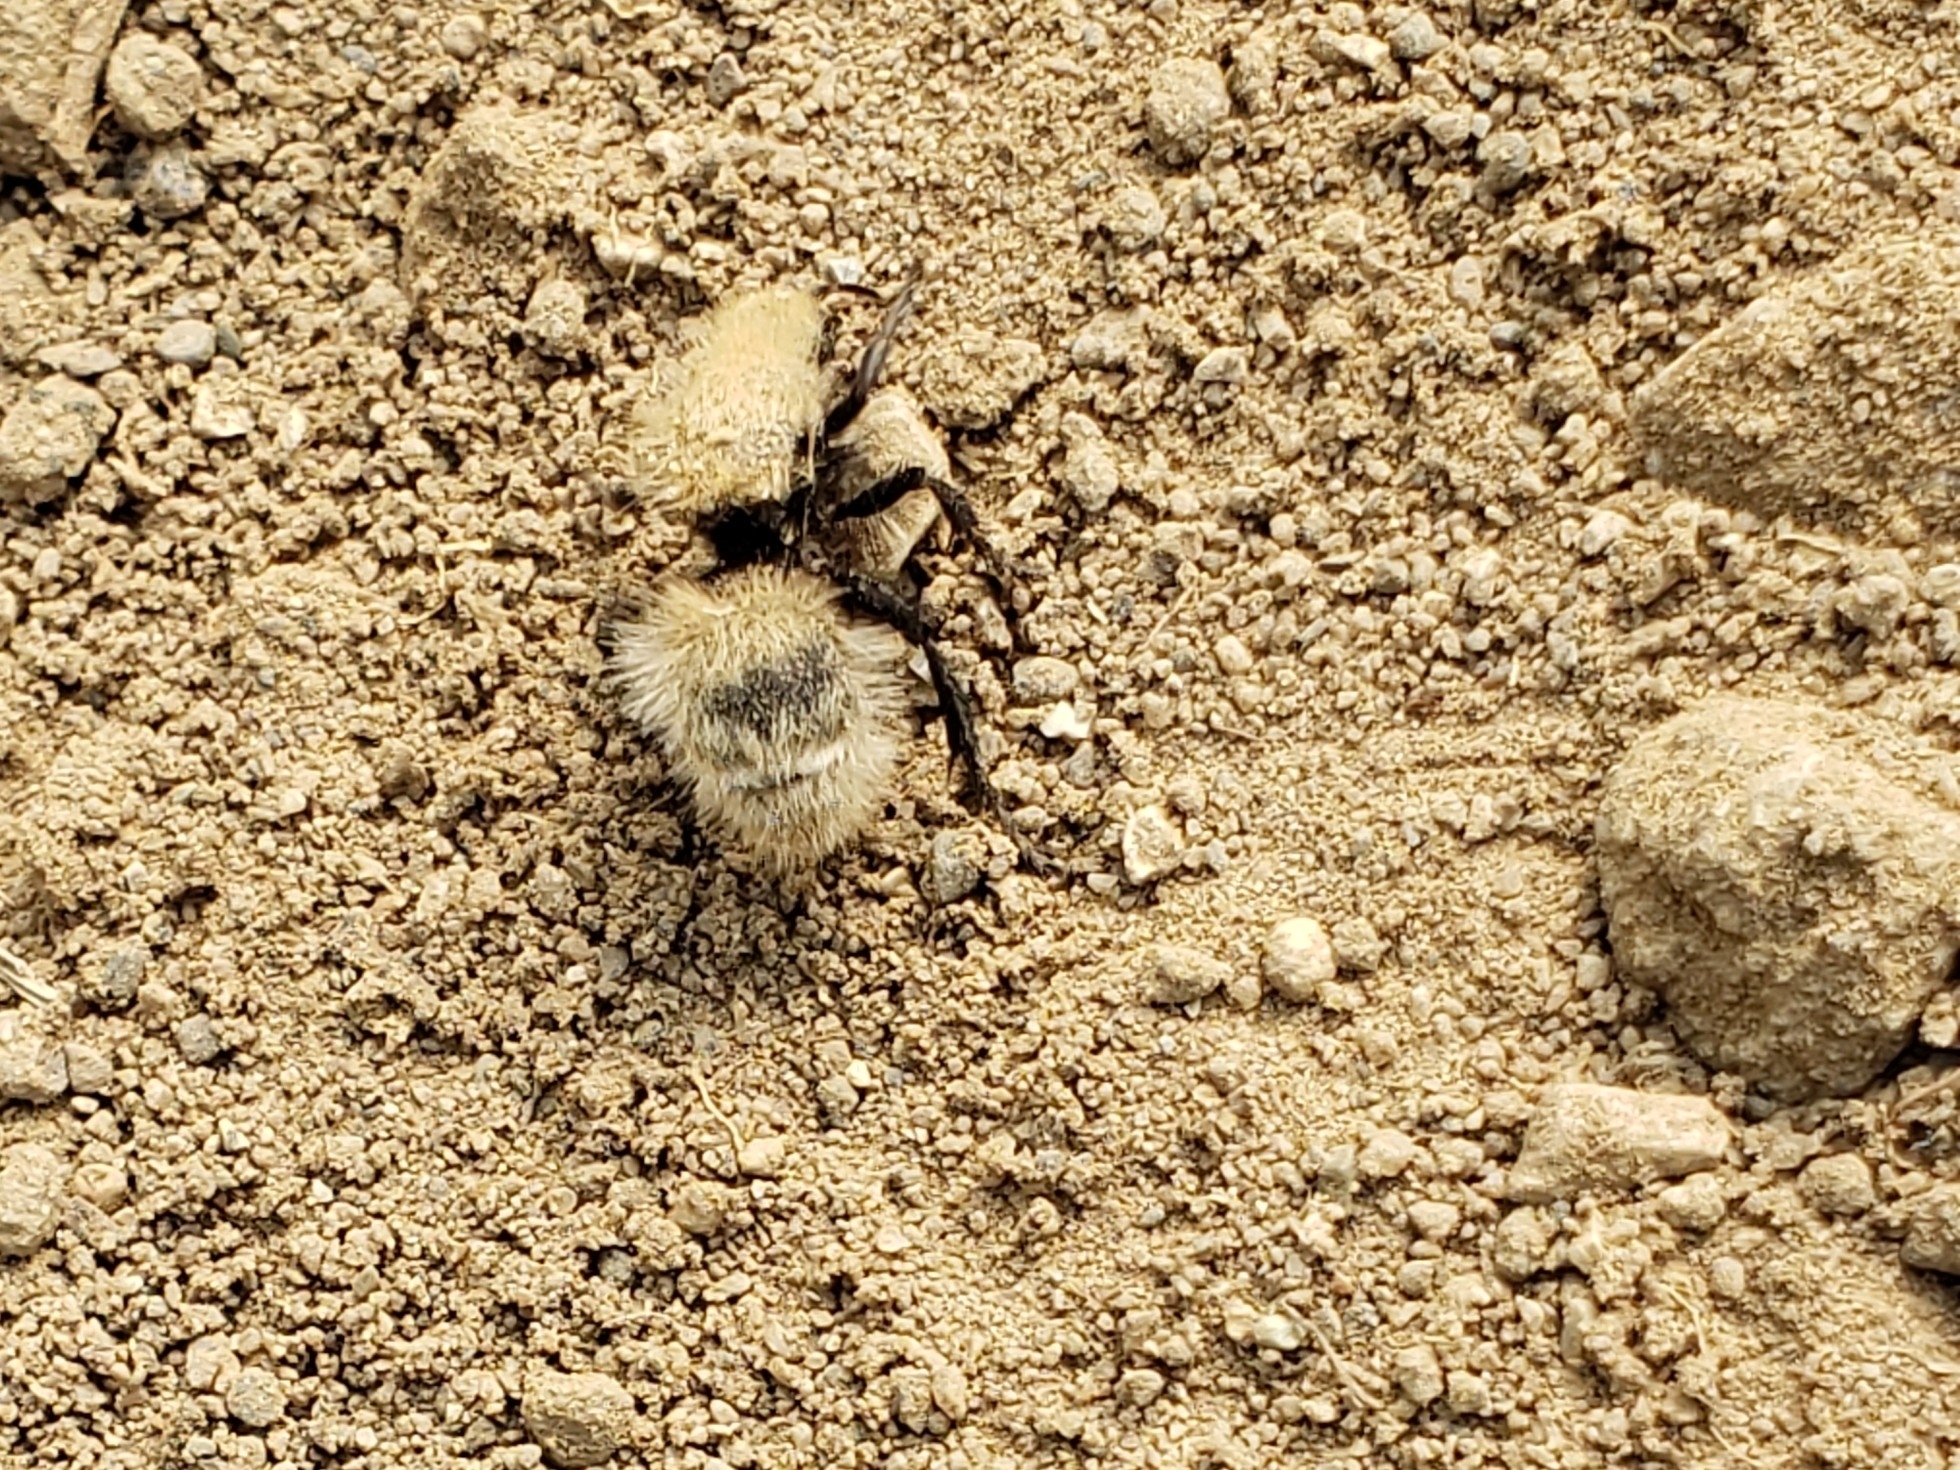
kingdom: Animalia
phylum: Arthropoda
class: Insecta
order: Hymenoptera
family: Mutillidae
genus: Dasymutilla
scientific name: Dasymutilla
